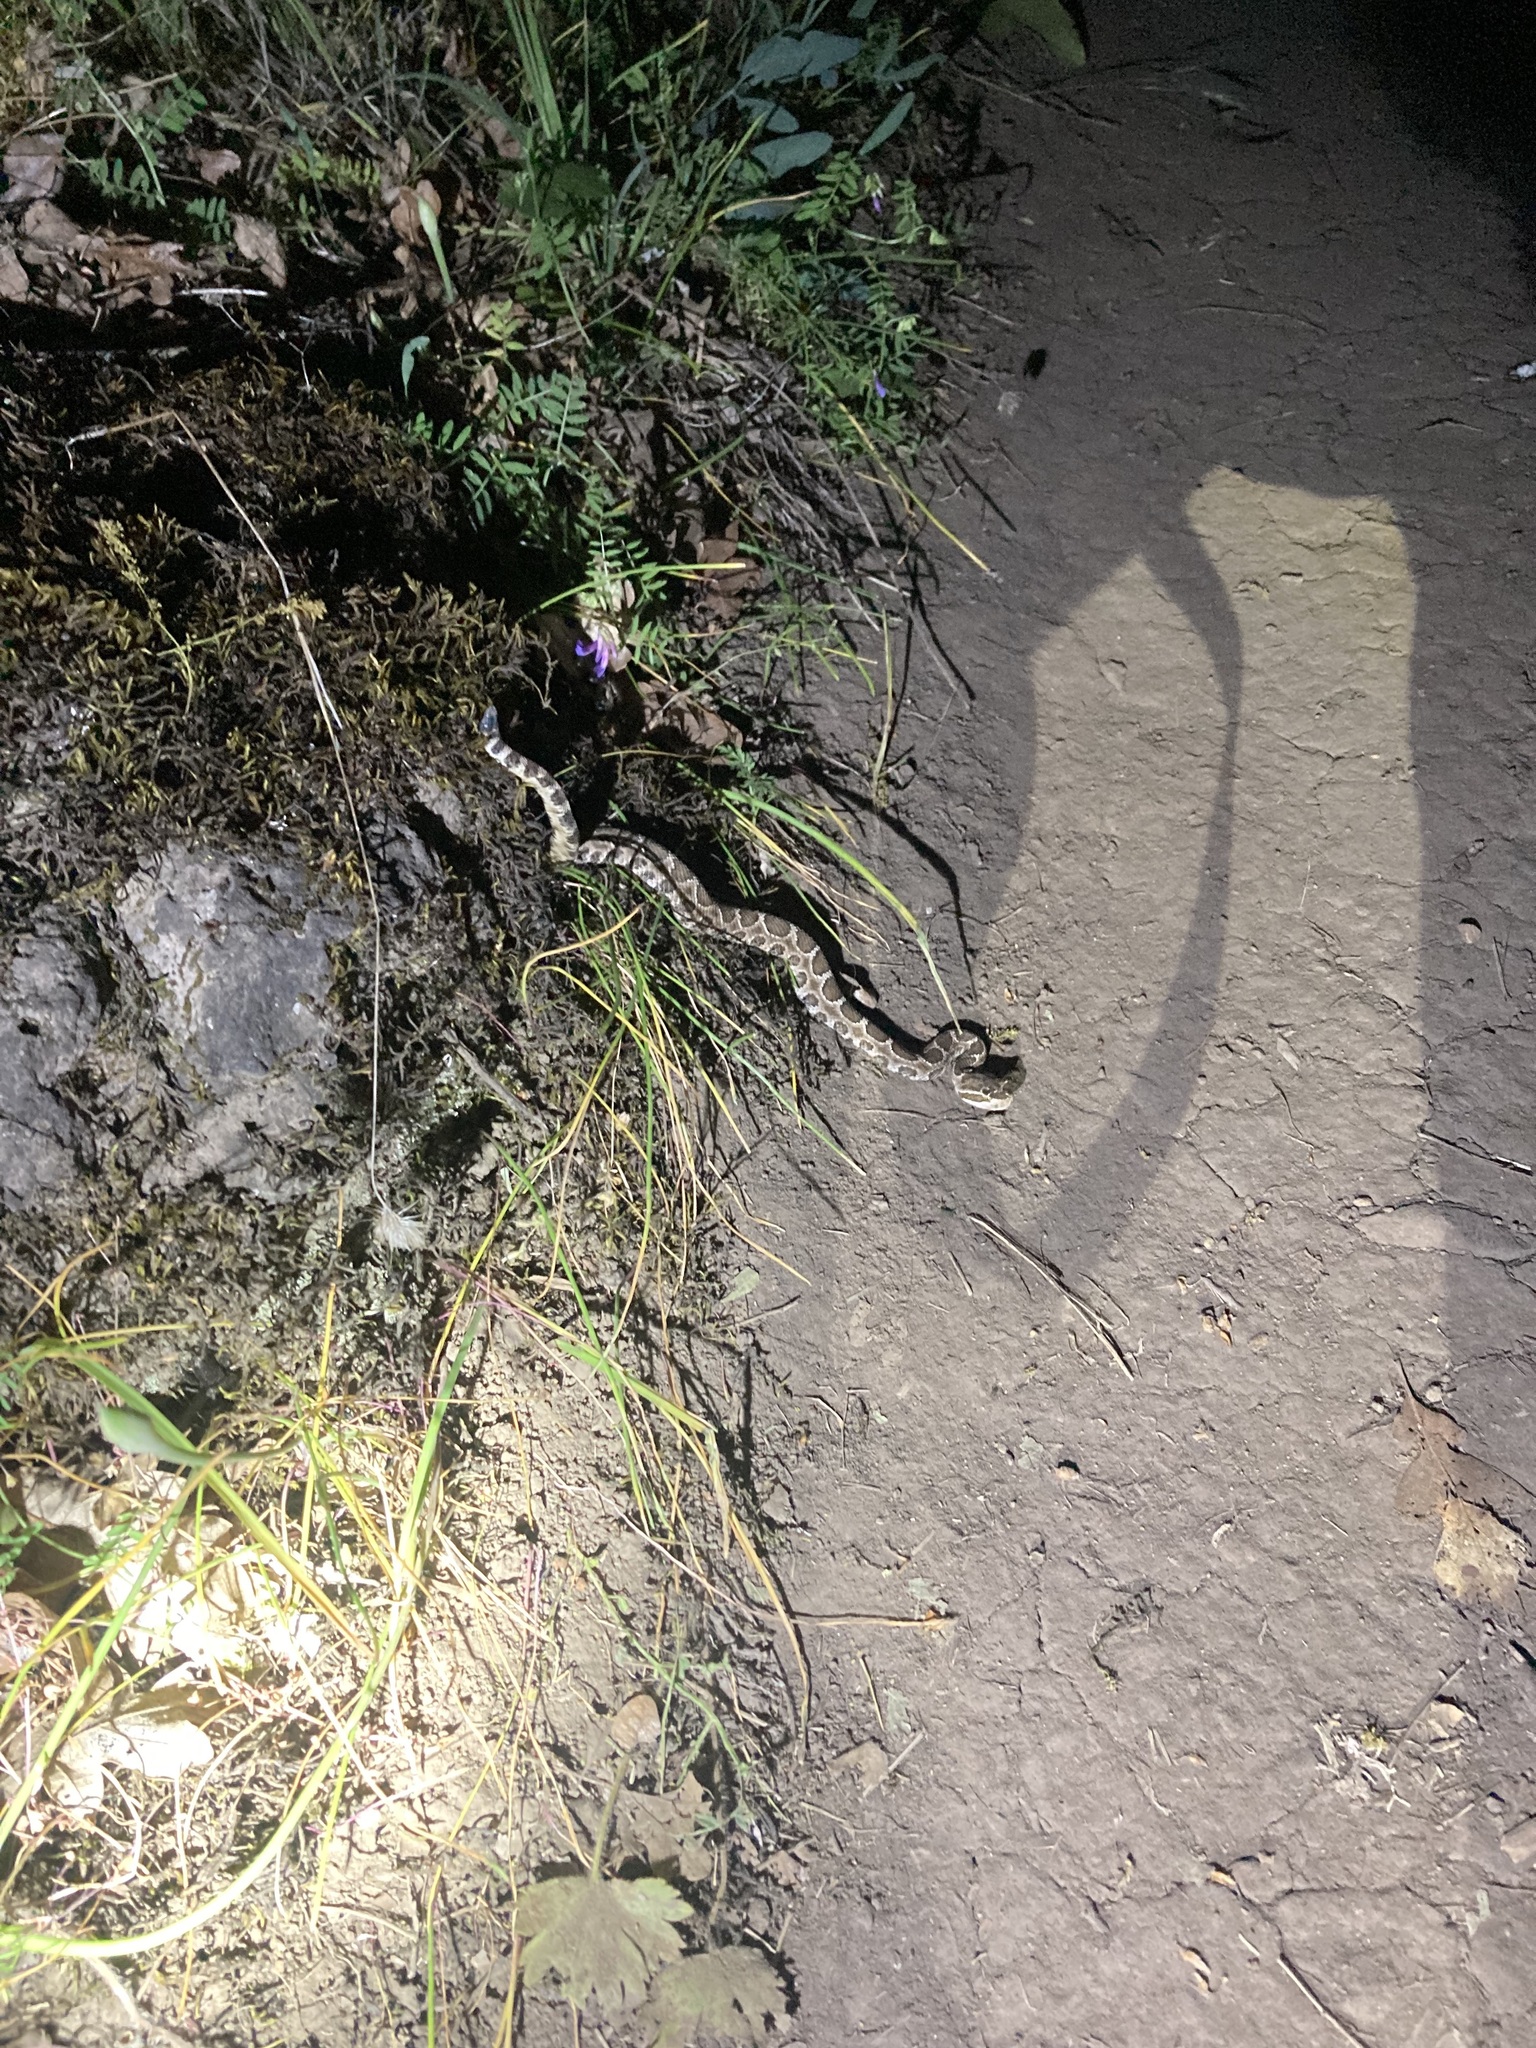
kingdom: Animalia
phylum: Chordata
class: Squamata
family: Viperidae
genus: Crotalus
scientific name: Crotalus oreganus
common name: Abyssus
